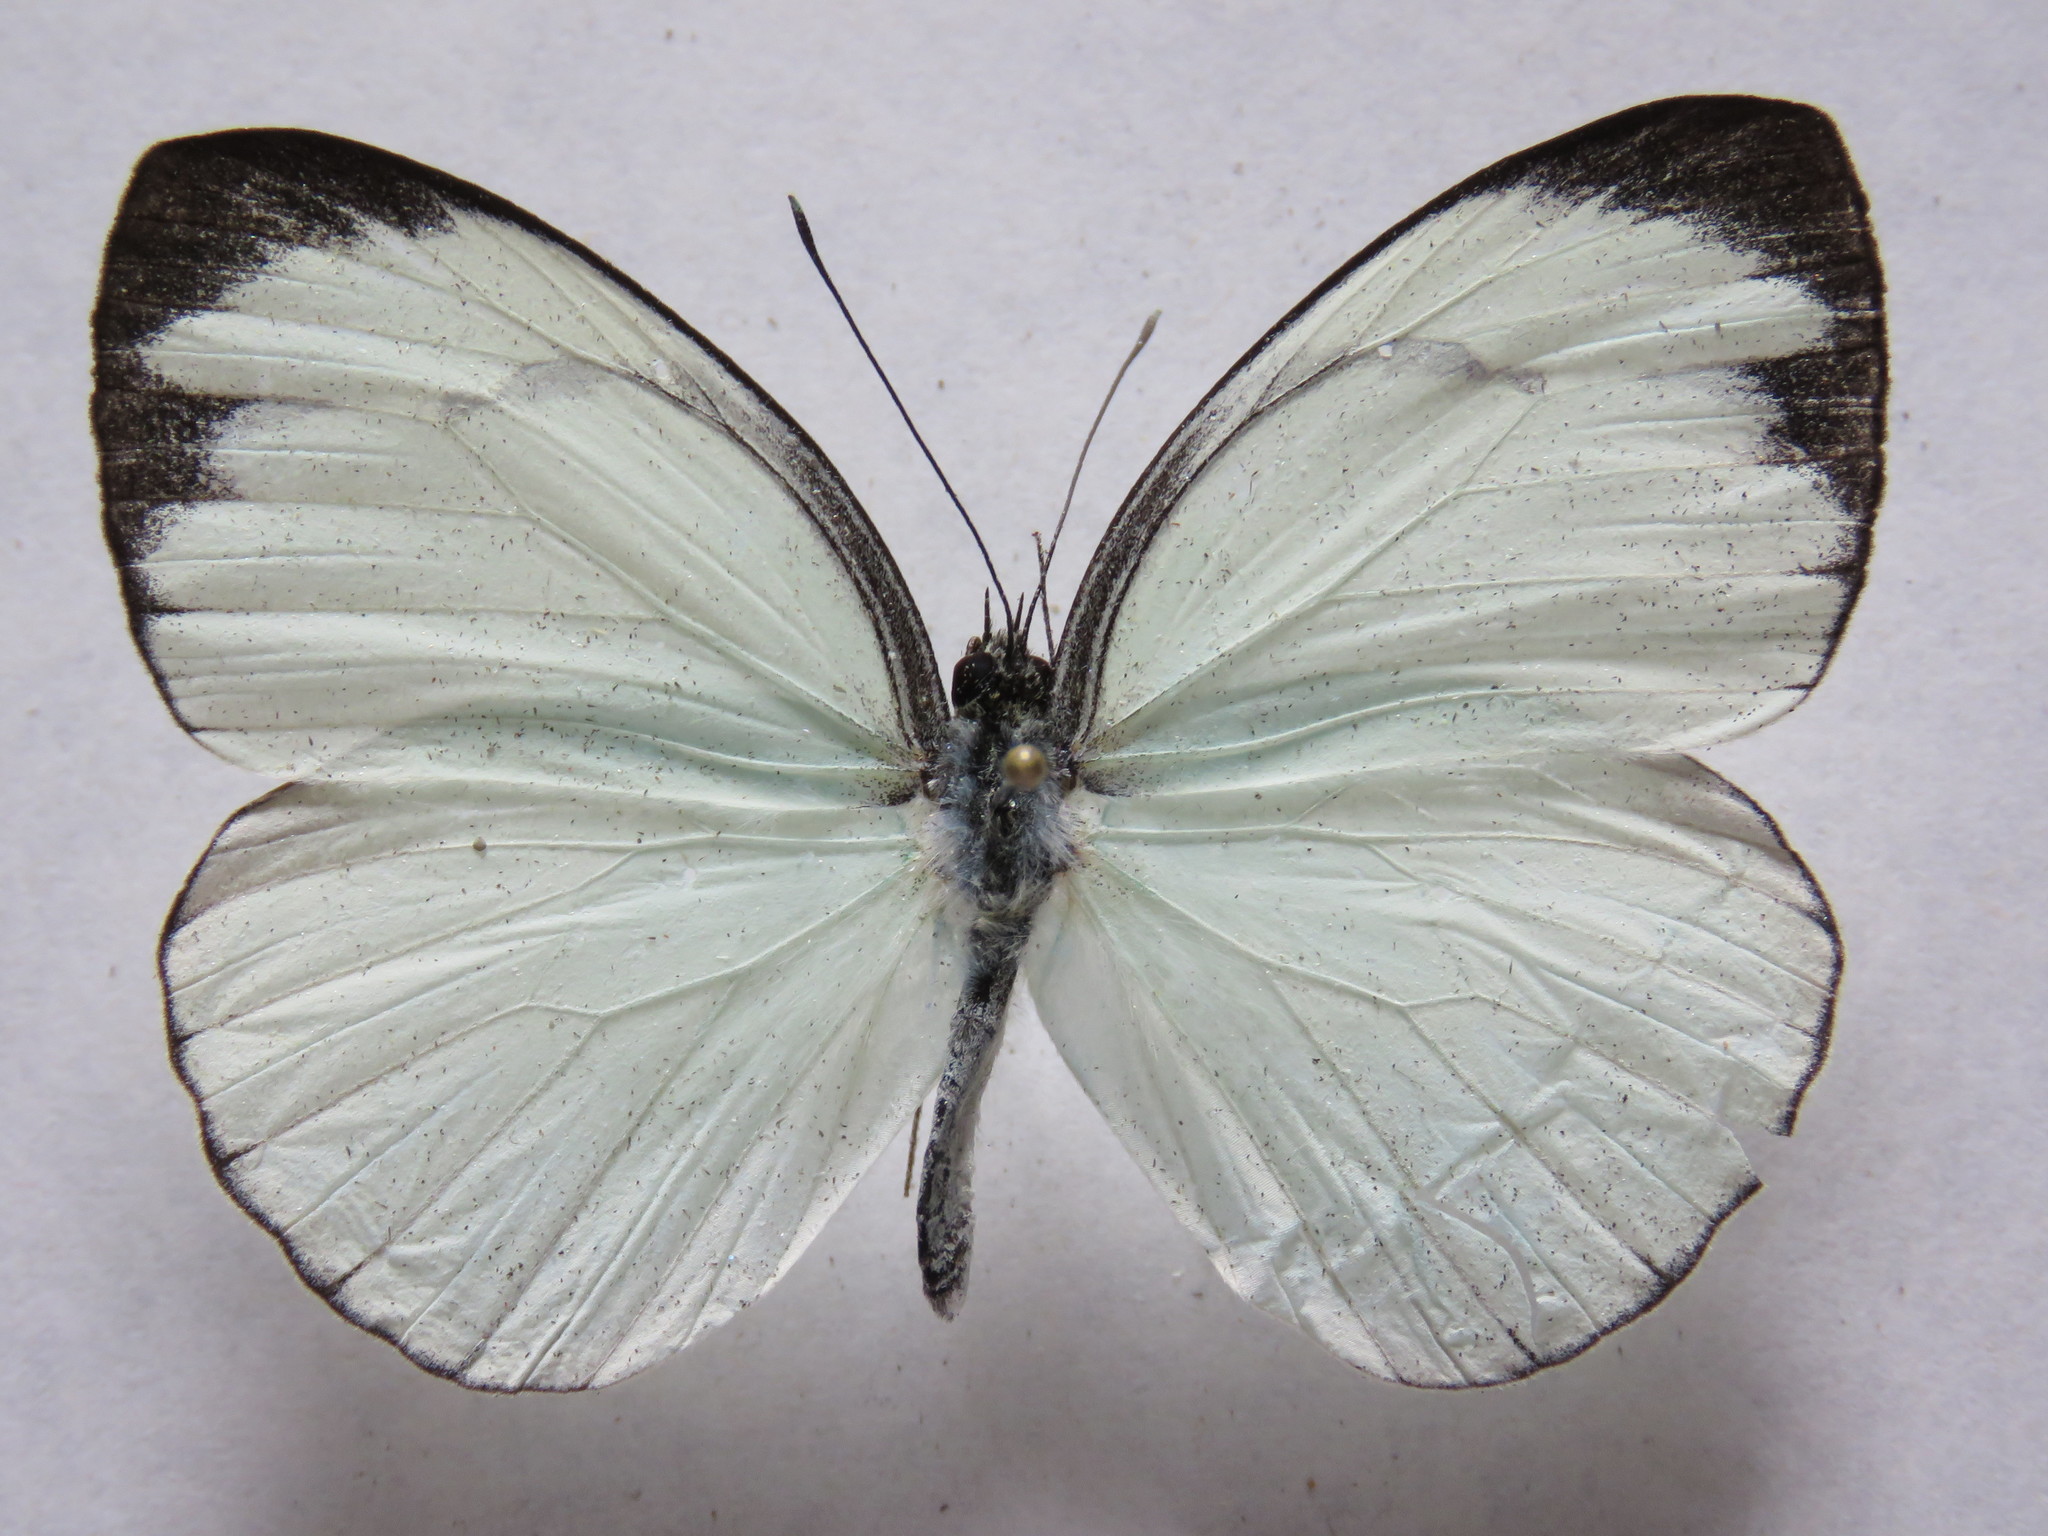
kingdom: Animalia
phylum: Arthropoda
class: Insecta
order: Lepidoptera
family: Pieridae
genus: Itaballia
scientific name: Itaballia demophile
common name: Cross-barred white
